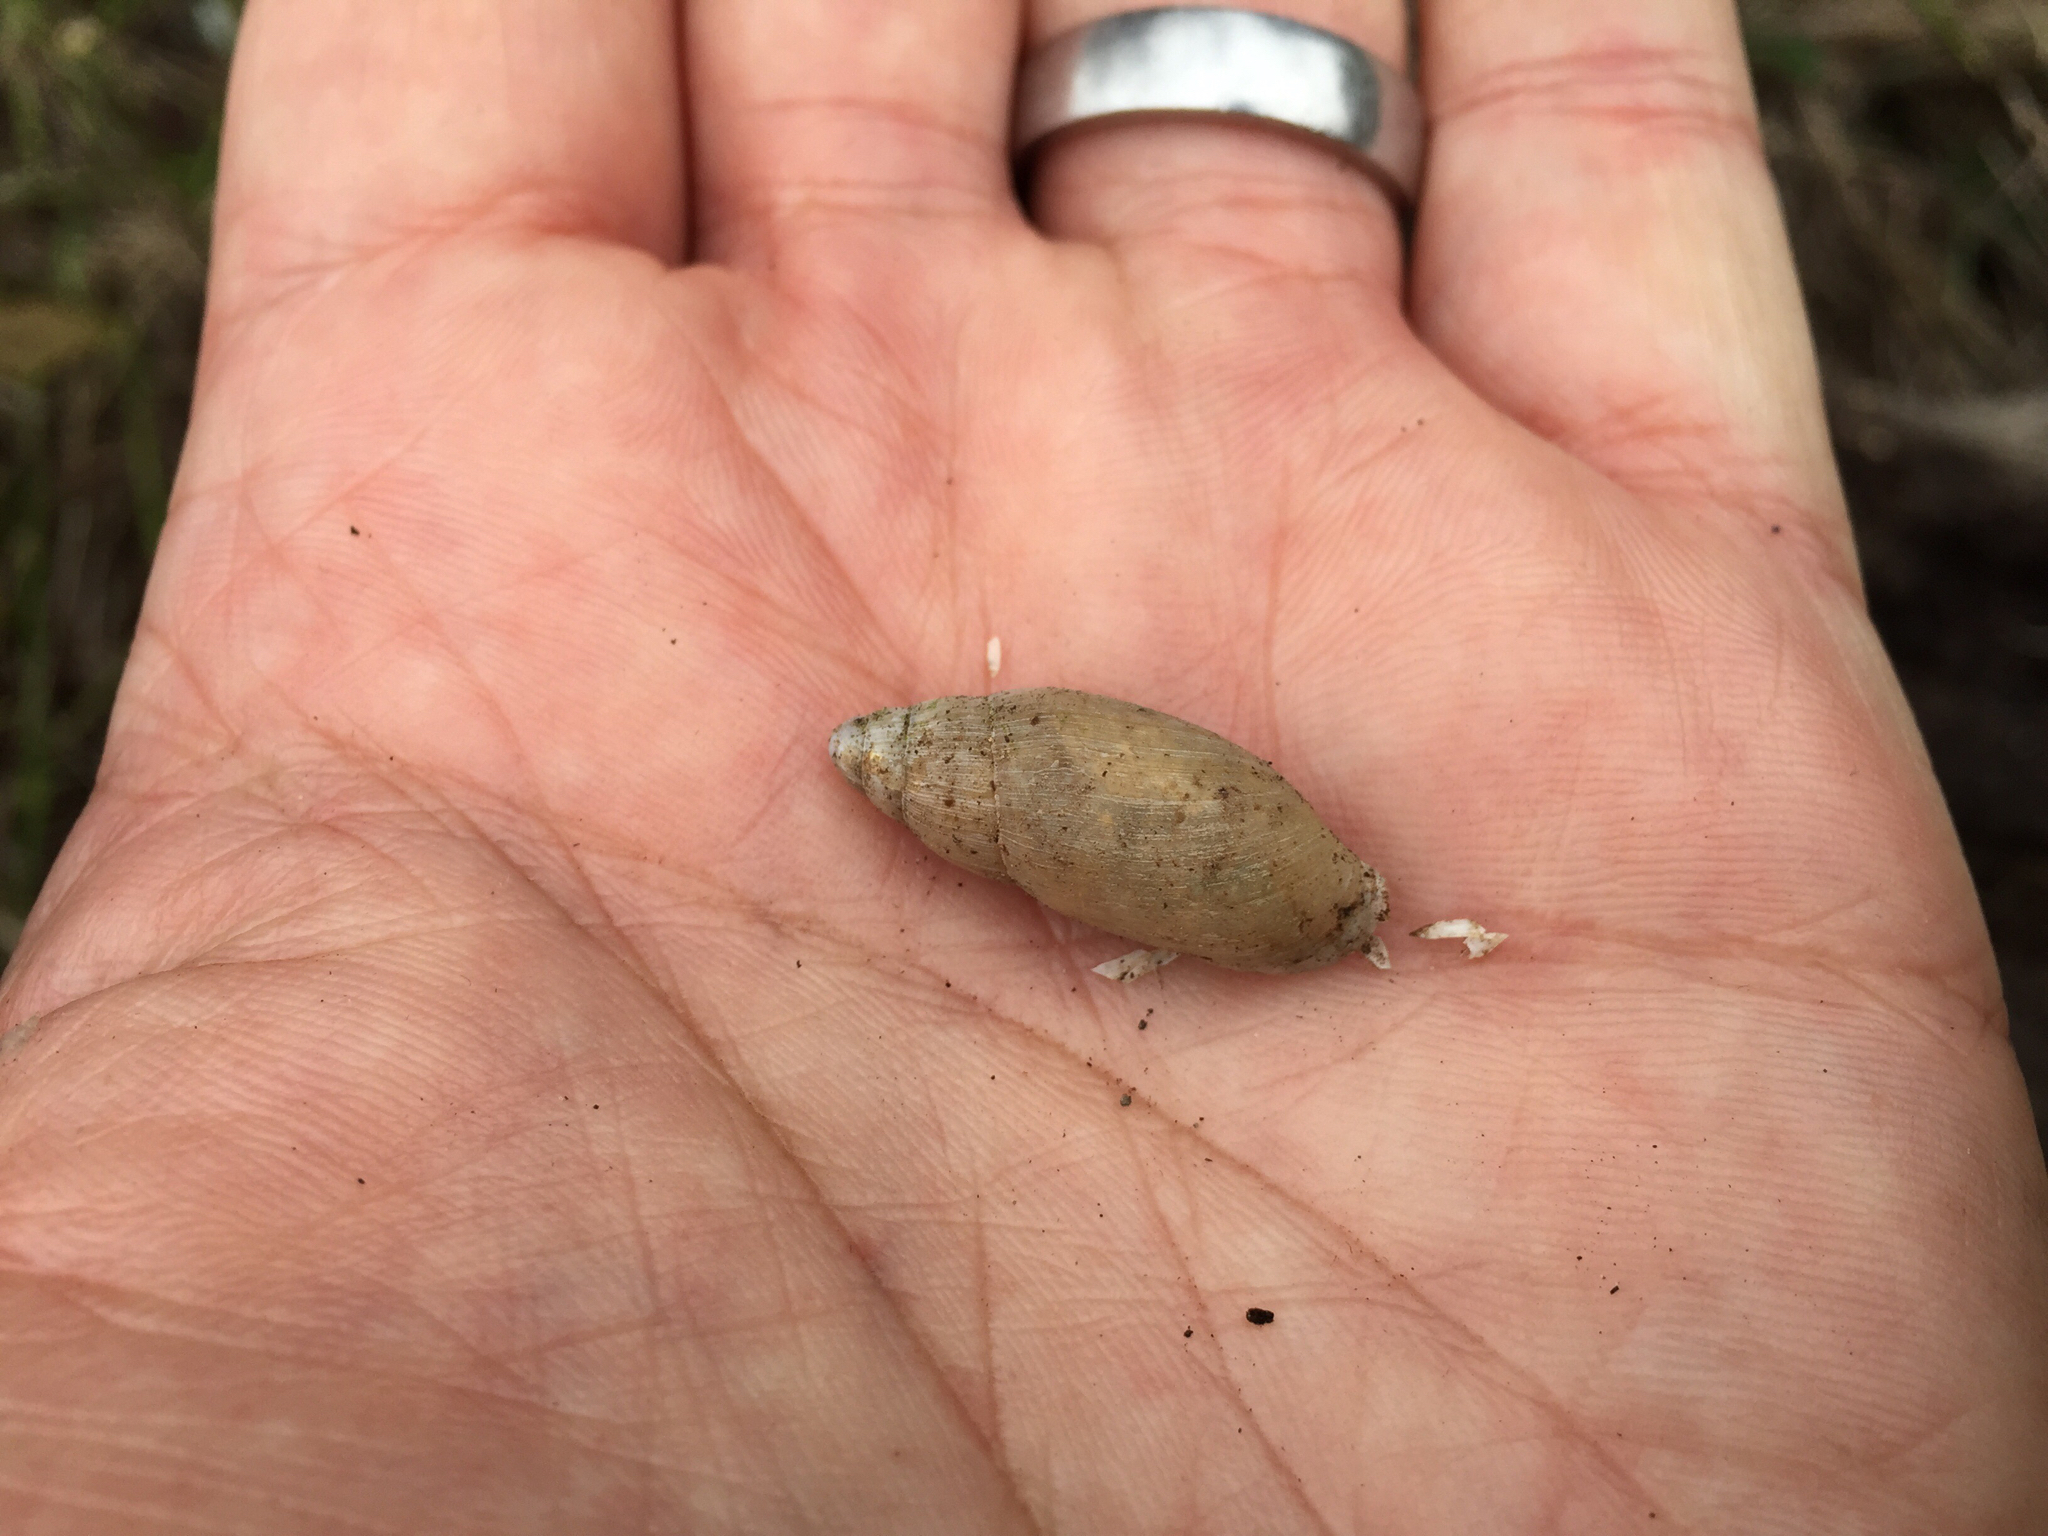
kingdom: Animalia
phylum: Mollusca
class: Gastropoda
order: Stylommatophora
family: Spiraxidae
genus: Euglandina
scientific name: Euglandina texasiana
